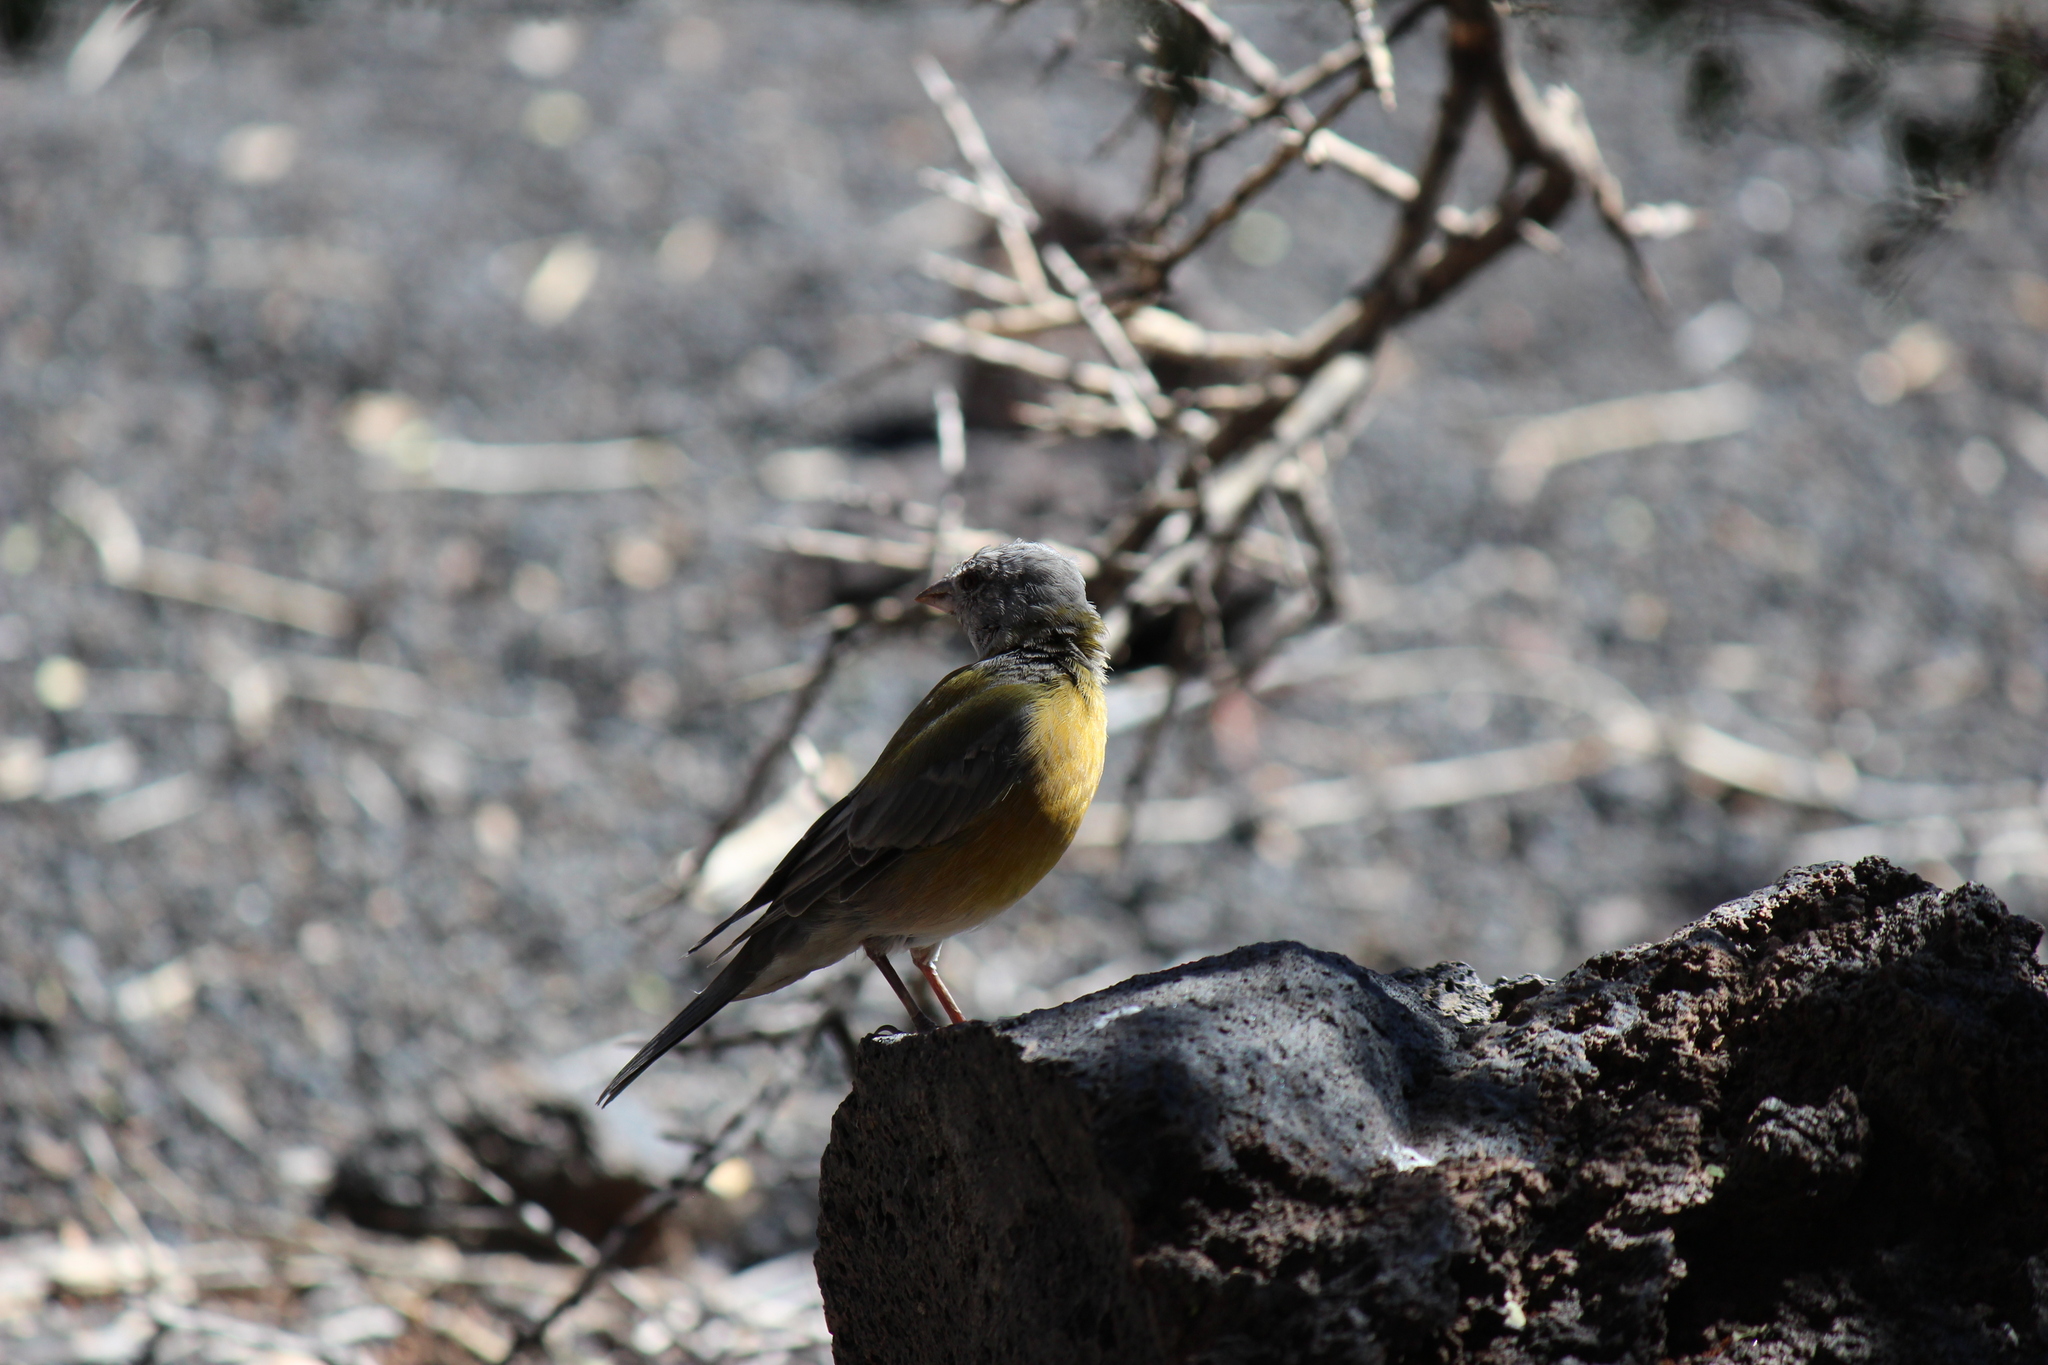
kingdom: Animalia
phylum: Chordata
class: Aves
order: Passeriformes
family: Thraupidae
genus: Phrygilus
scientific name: Phrygilus gayi
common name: Grey-hooded sierra finch
